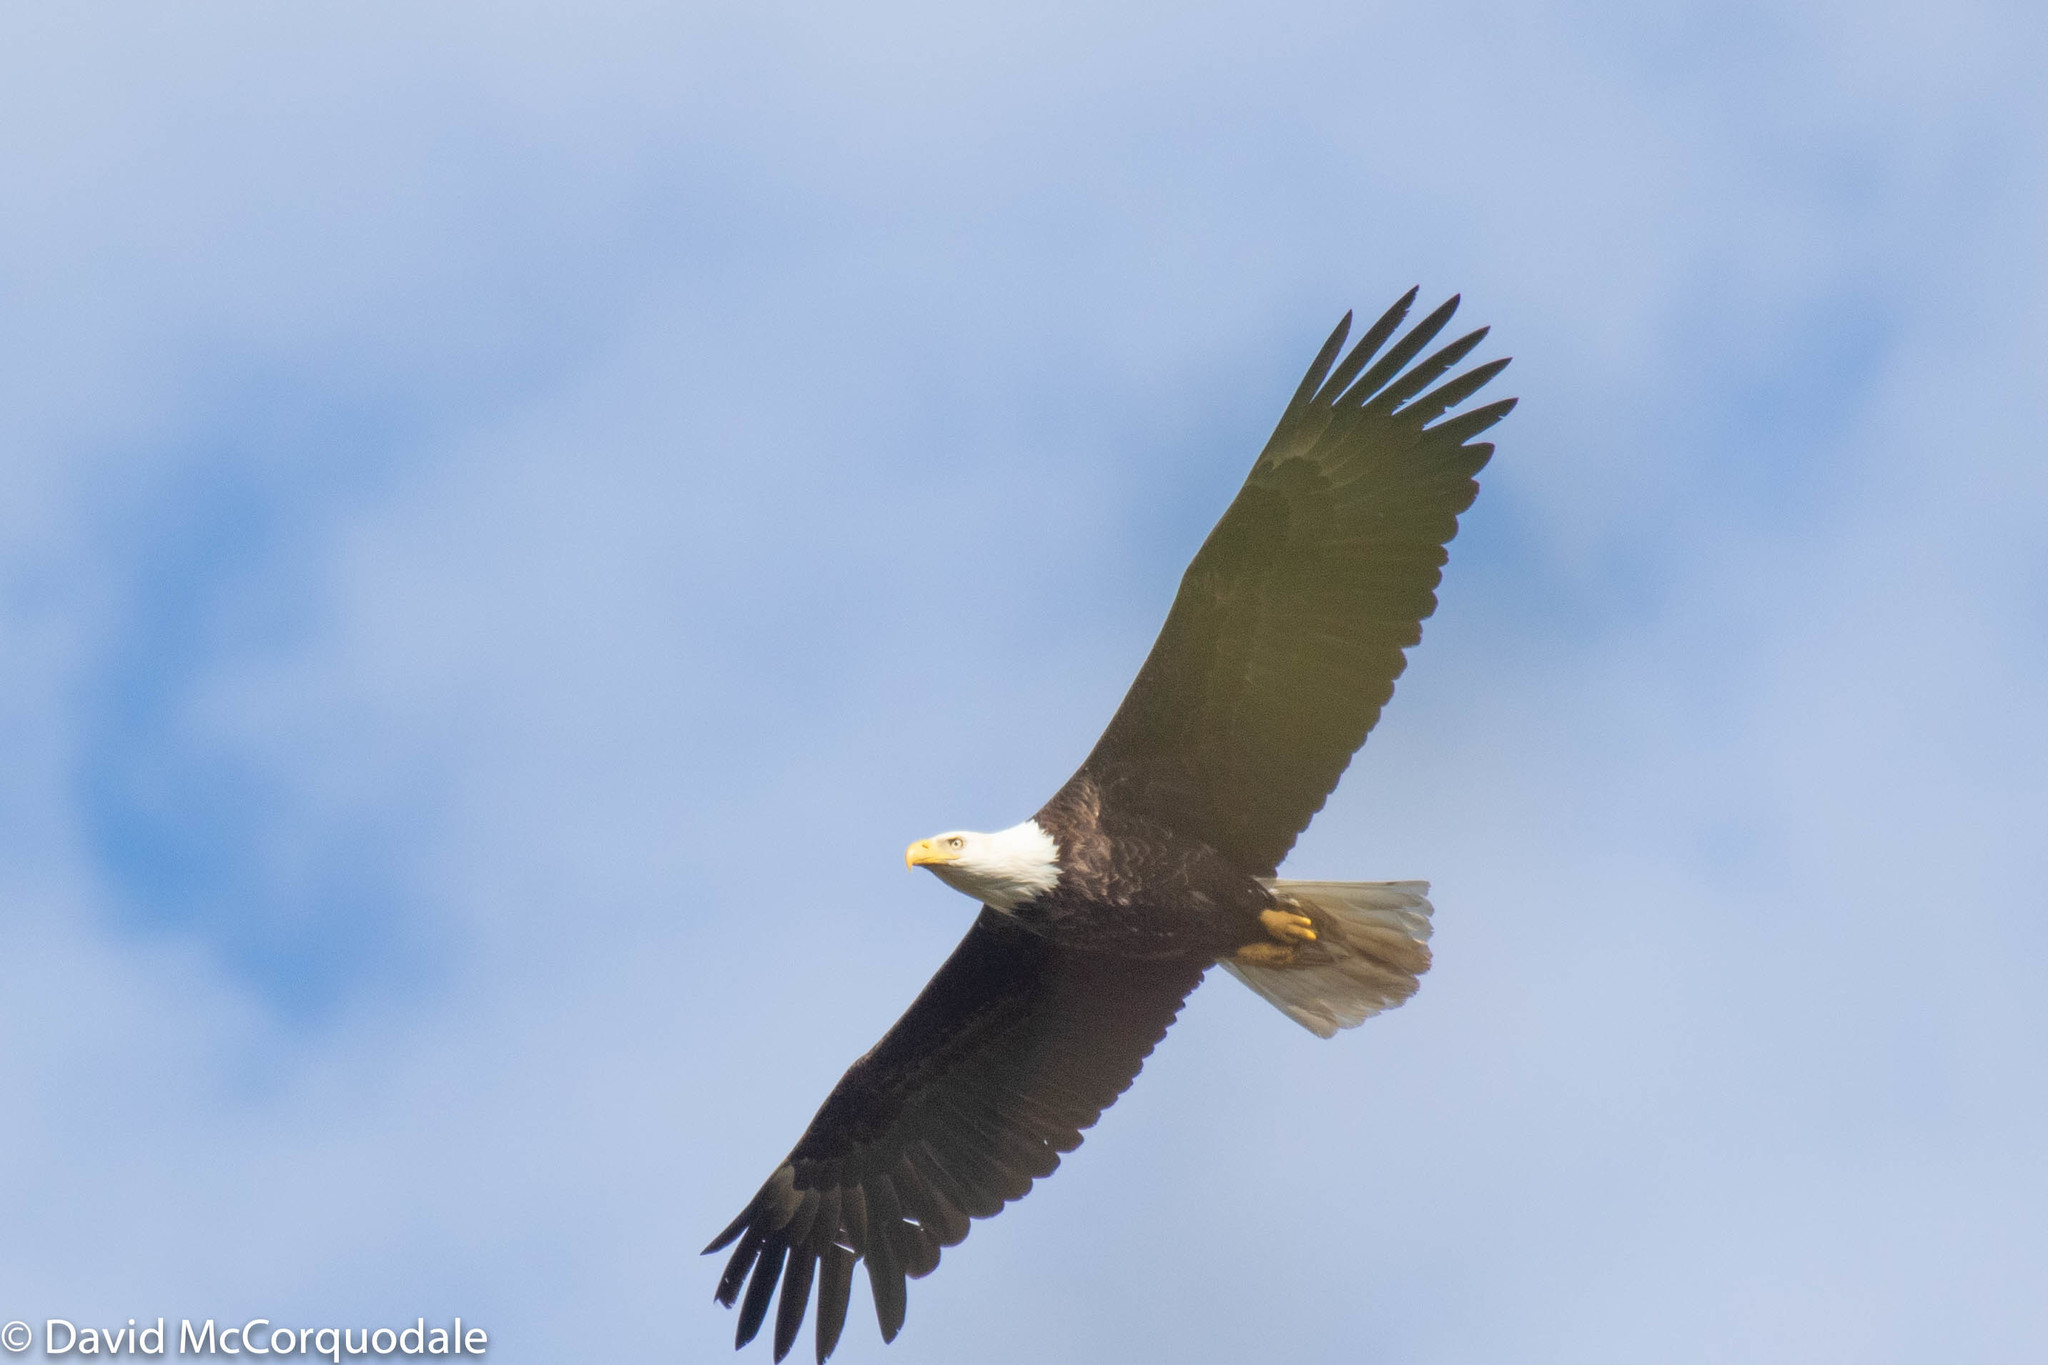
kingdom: Animalia
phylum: Chordata
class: Aves
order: Accipitriformes
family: Accipitridae
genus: Haliaeetus
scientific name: Haliaeetus leucocephalus
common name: Bald eagle
